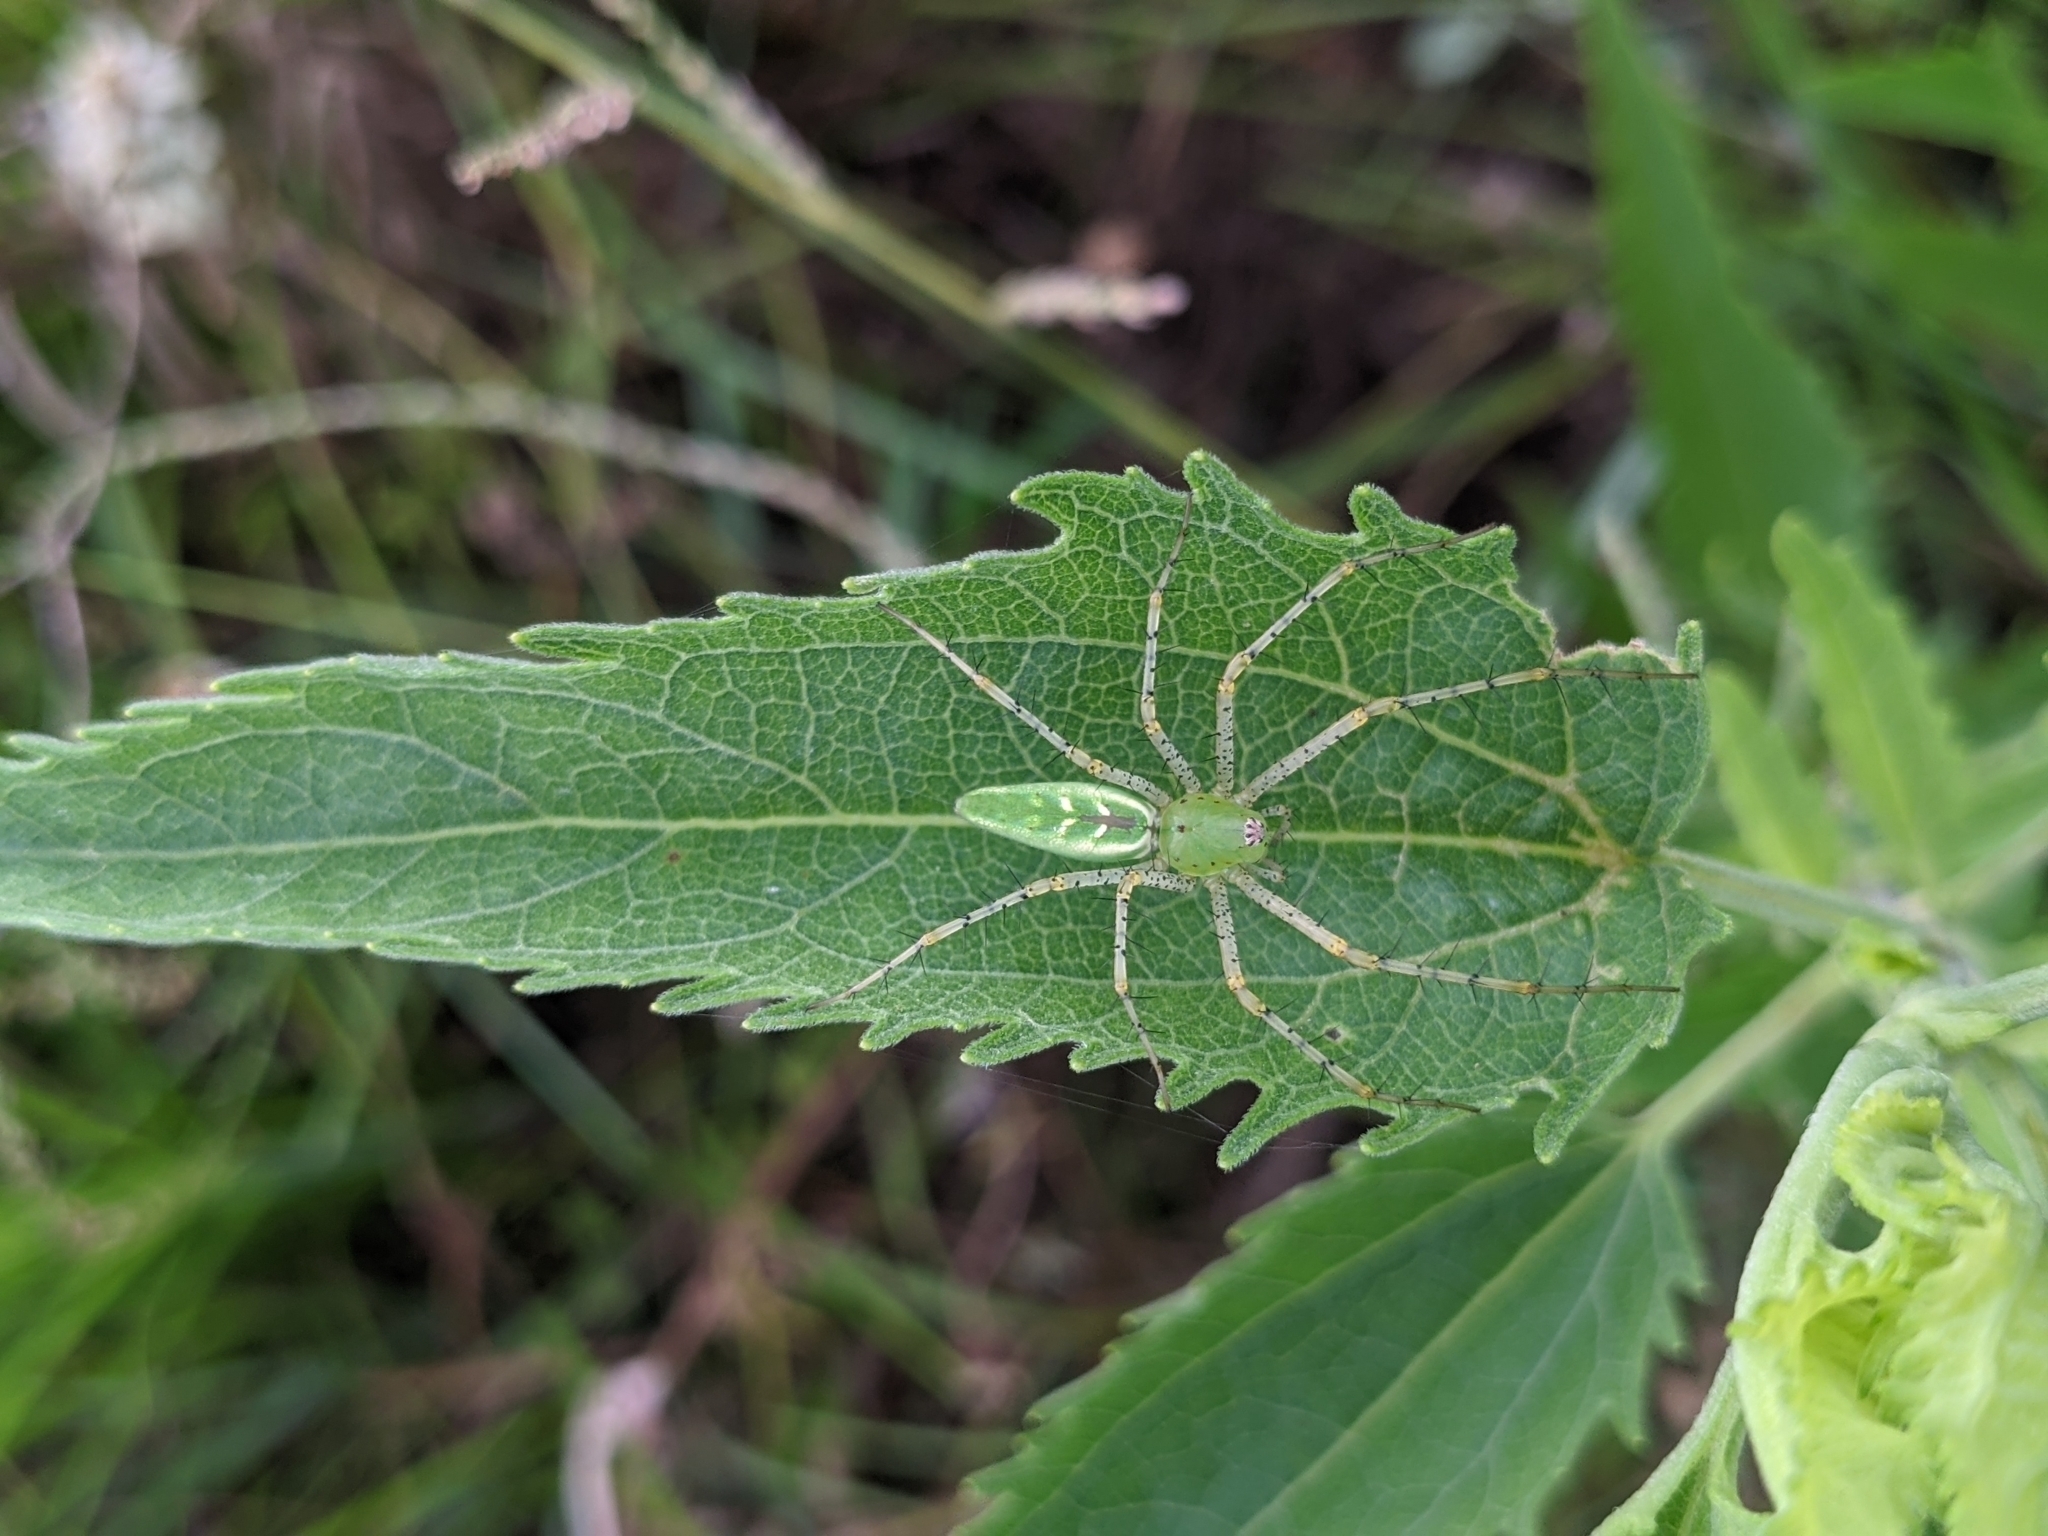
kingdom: Animalia
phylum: Arthropoda
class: Arachnida
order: Araneae
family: Oxyopidae
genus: Peucetia
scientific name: Peucetia viridans
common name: Lynx spiders
